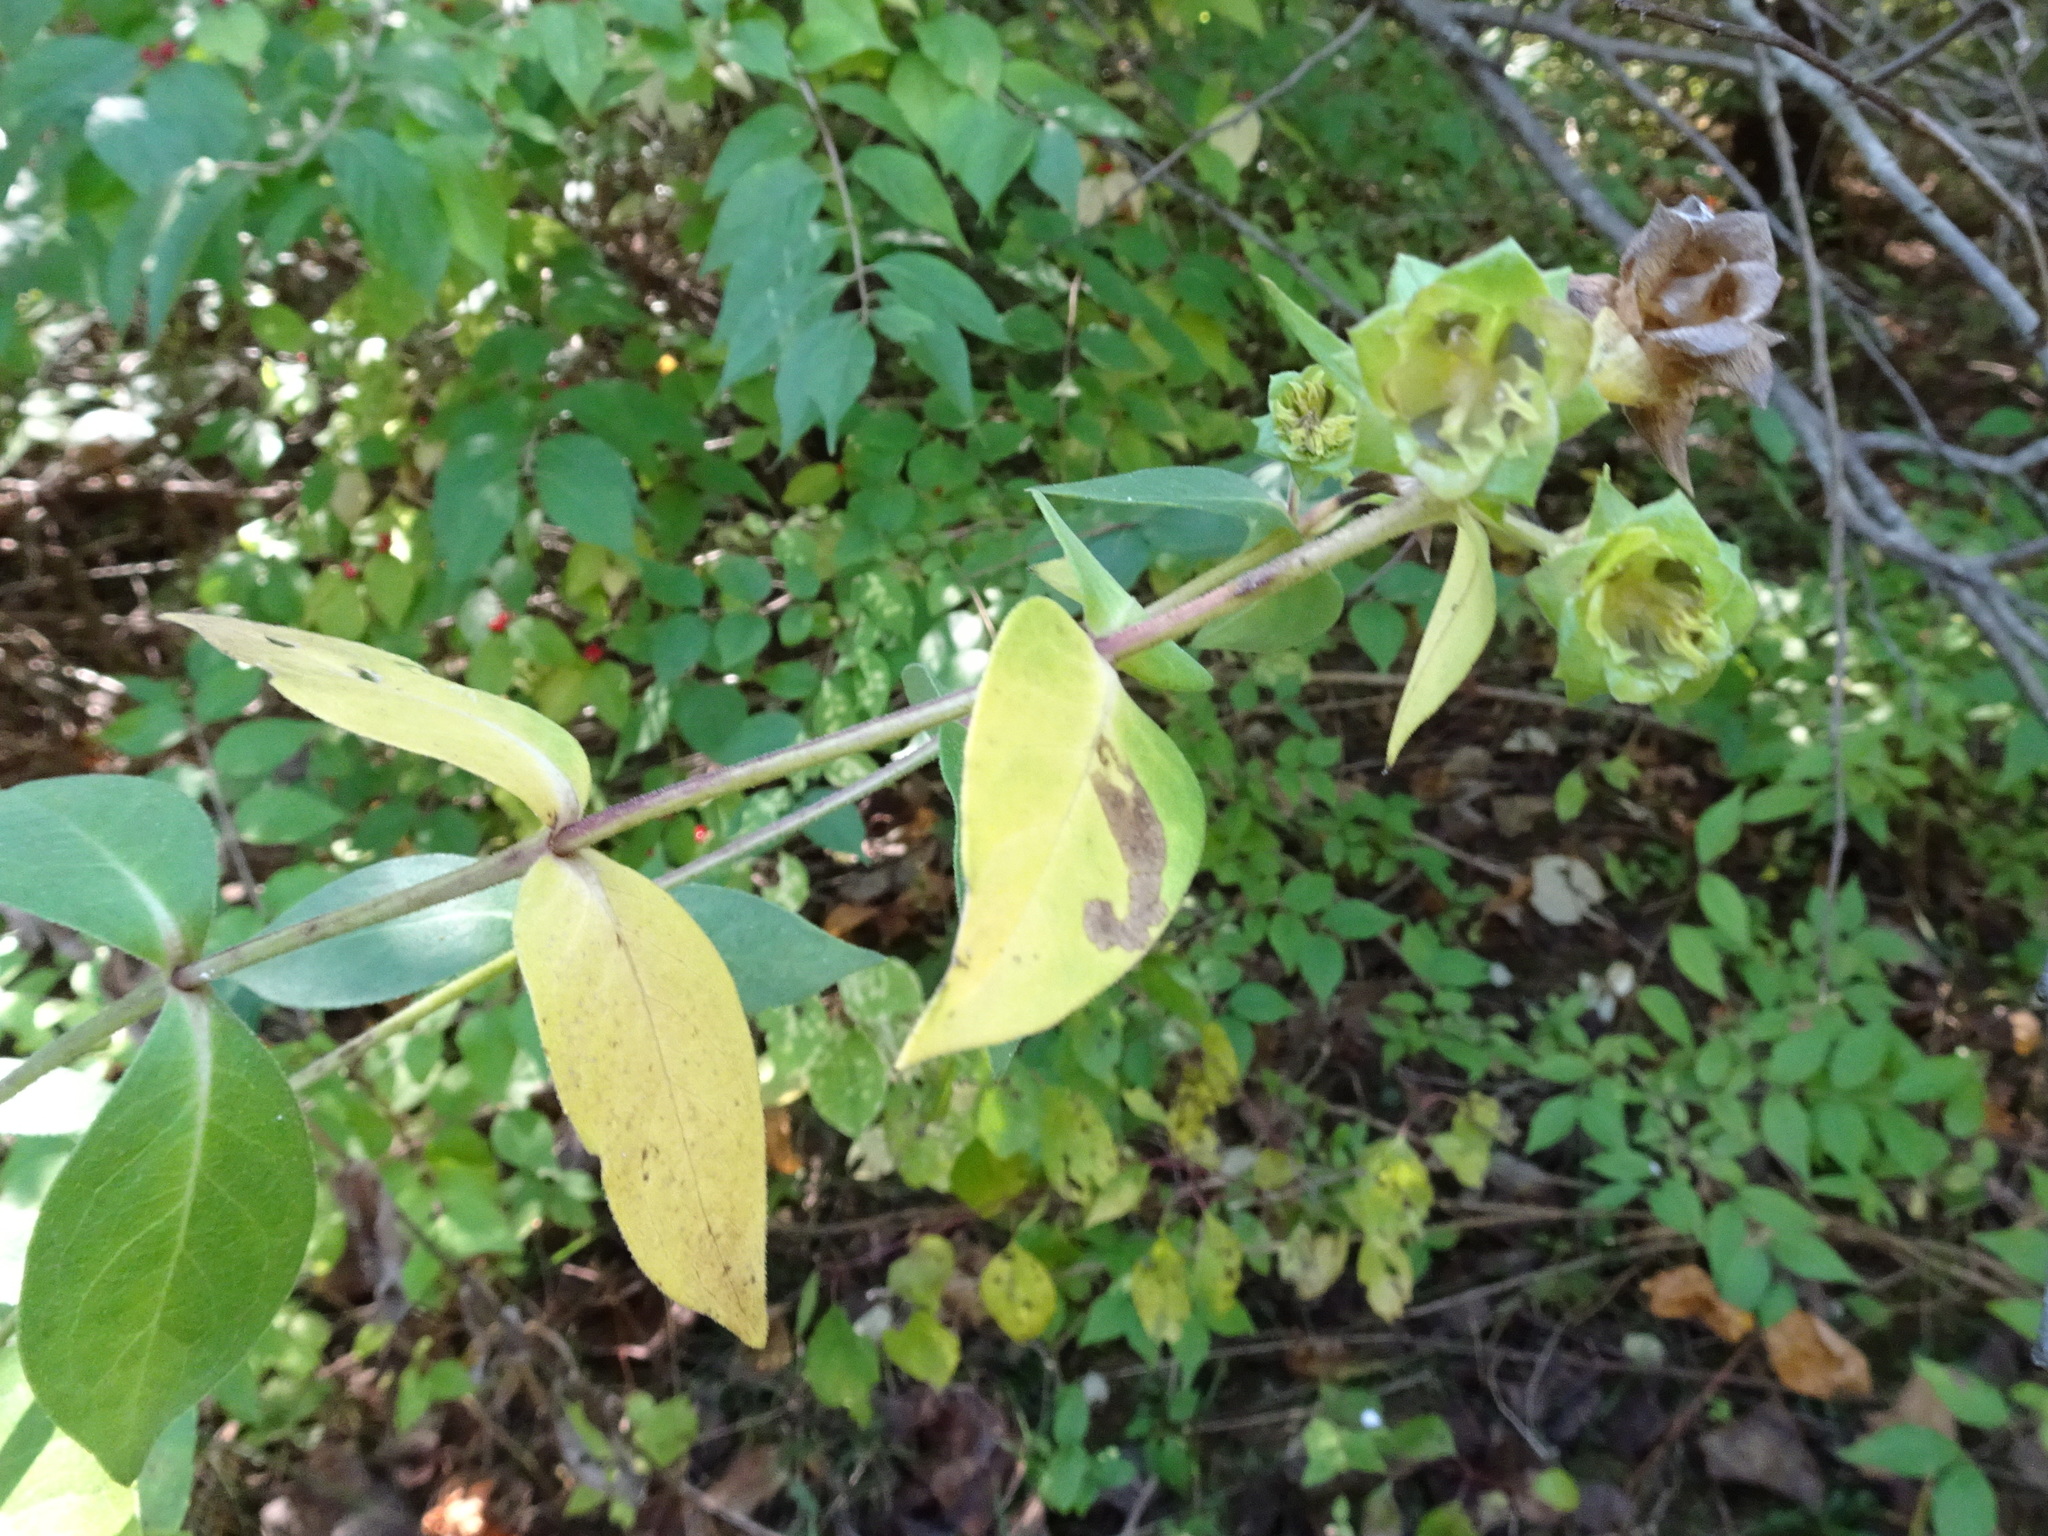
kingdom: Plantae
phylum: Tracheophyta
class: Magnoliopsida
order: Asterales
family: Asteraceae
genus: Silphium
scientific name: Silphium integrifolium
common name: Whole-leaf rosinweed
